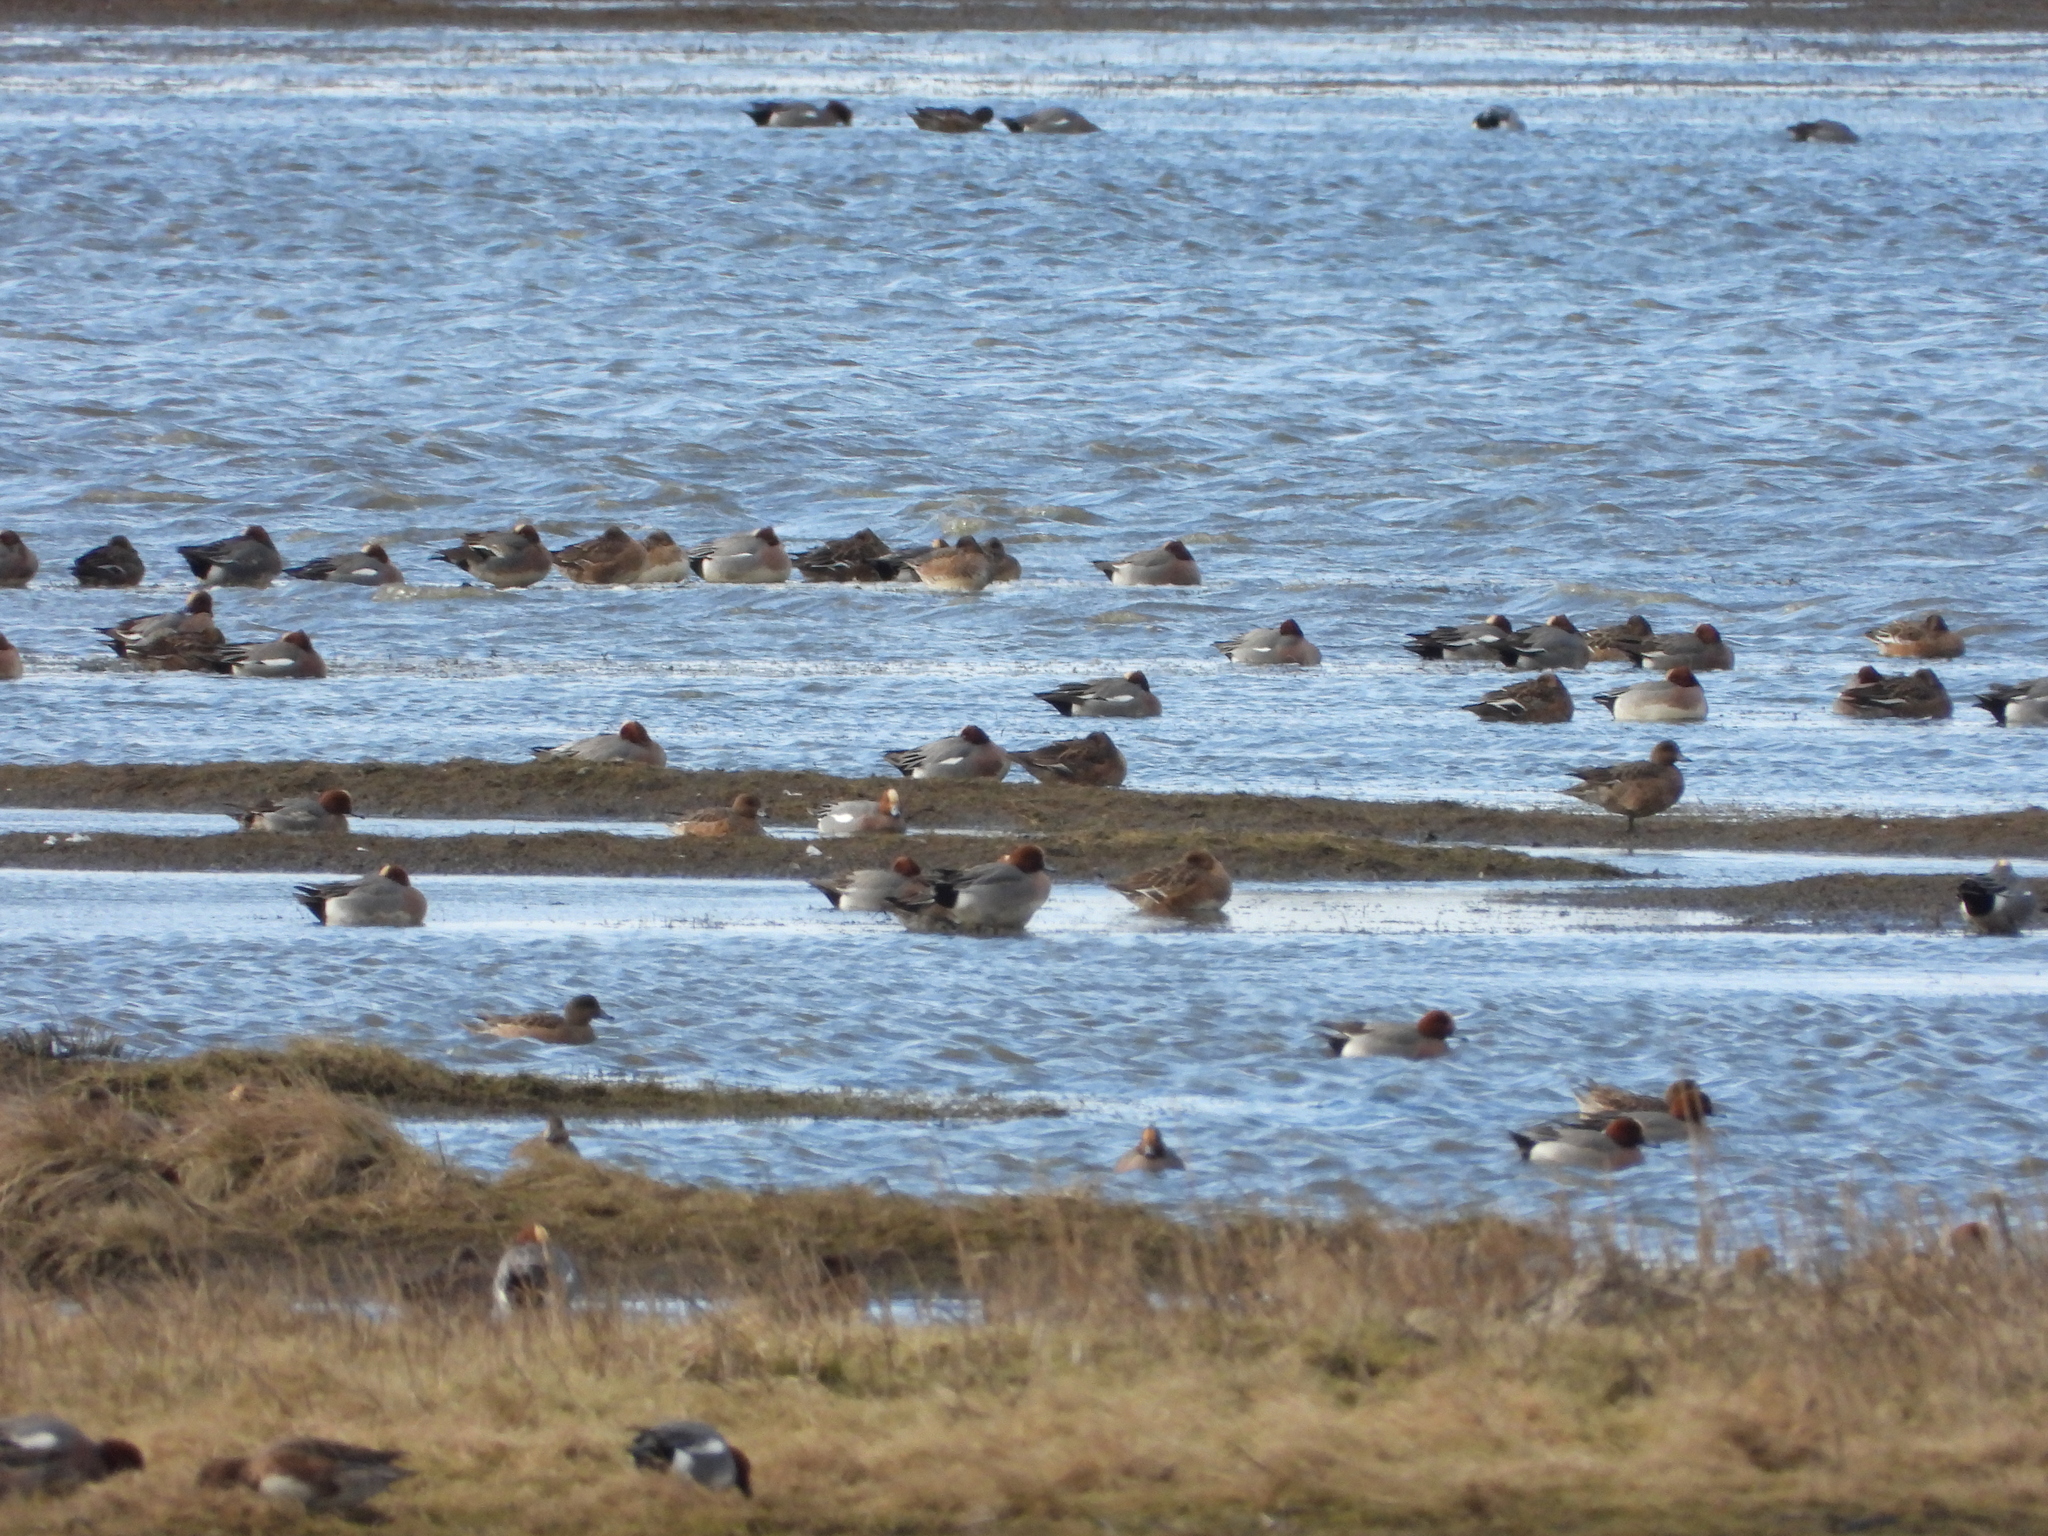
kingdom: Animalia
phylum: Chordata
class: Aves
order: Anseriformes
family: Anatidae
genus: Mareca
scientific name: Mareca penelope
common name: Eurasian wigeon
